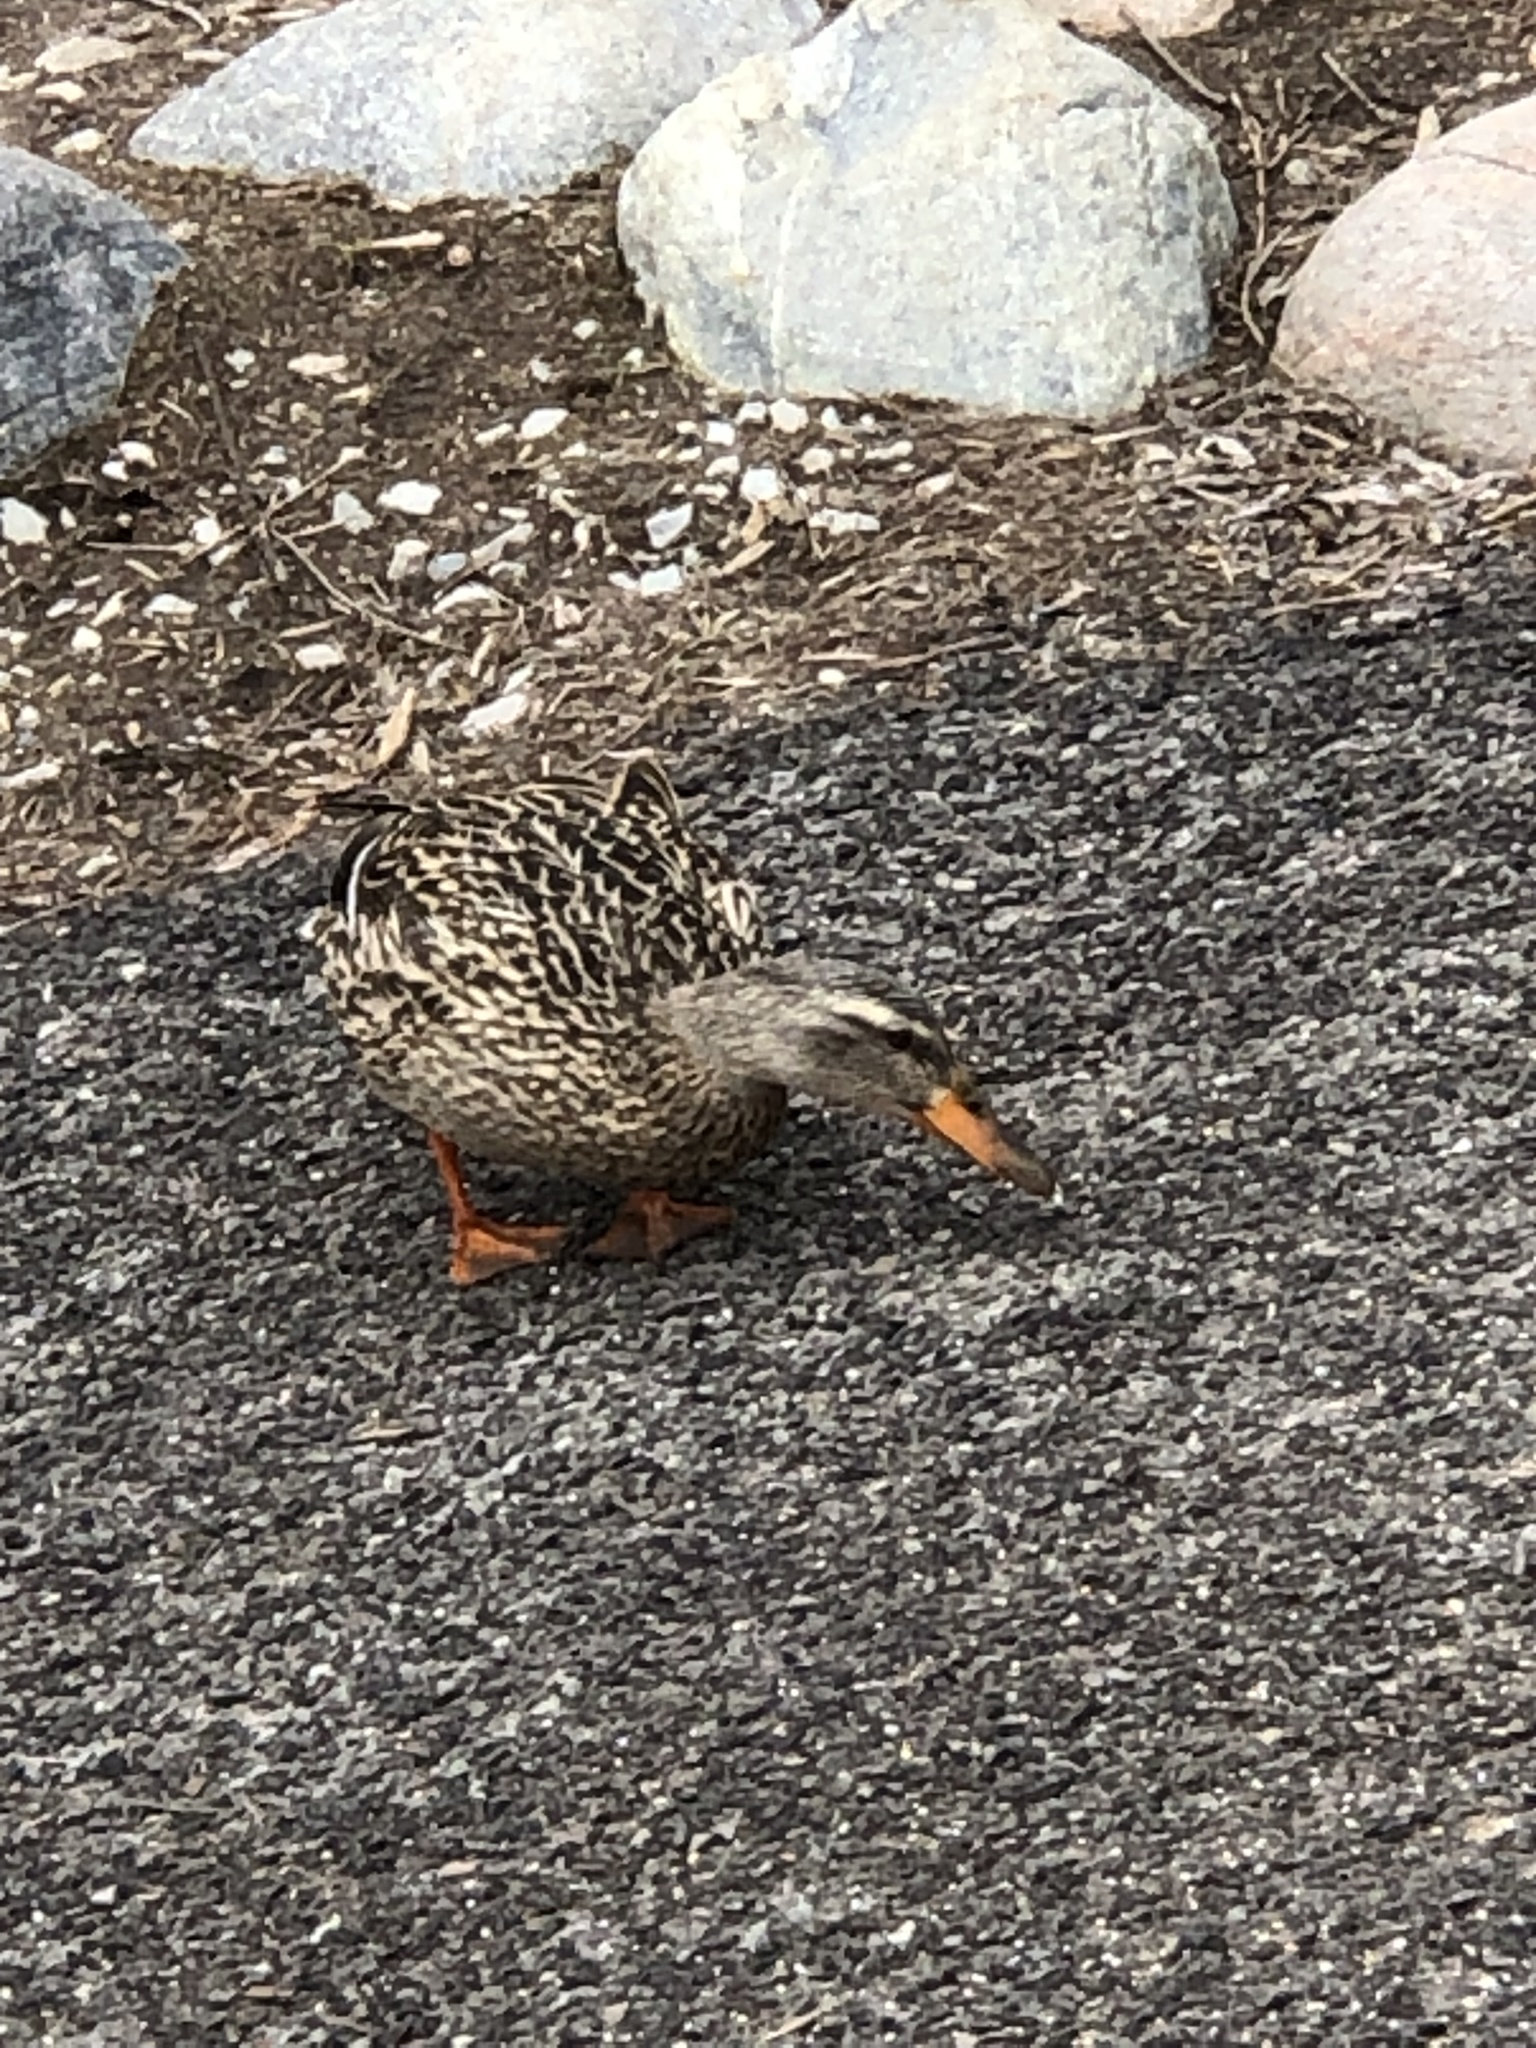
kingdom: Animalia
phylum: Chordata
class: Aves
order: Anseriformes
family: Anatidae
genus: Anas
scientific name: Anas platyrhynchos
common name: Mallard
